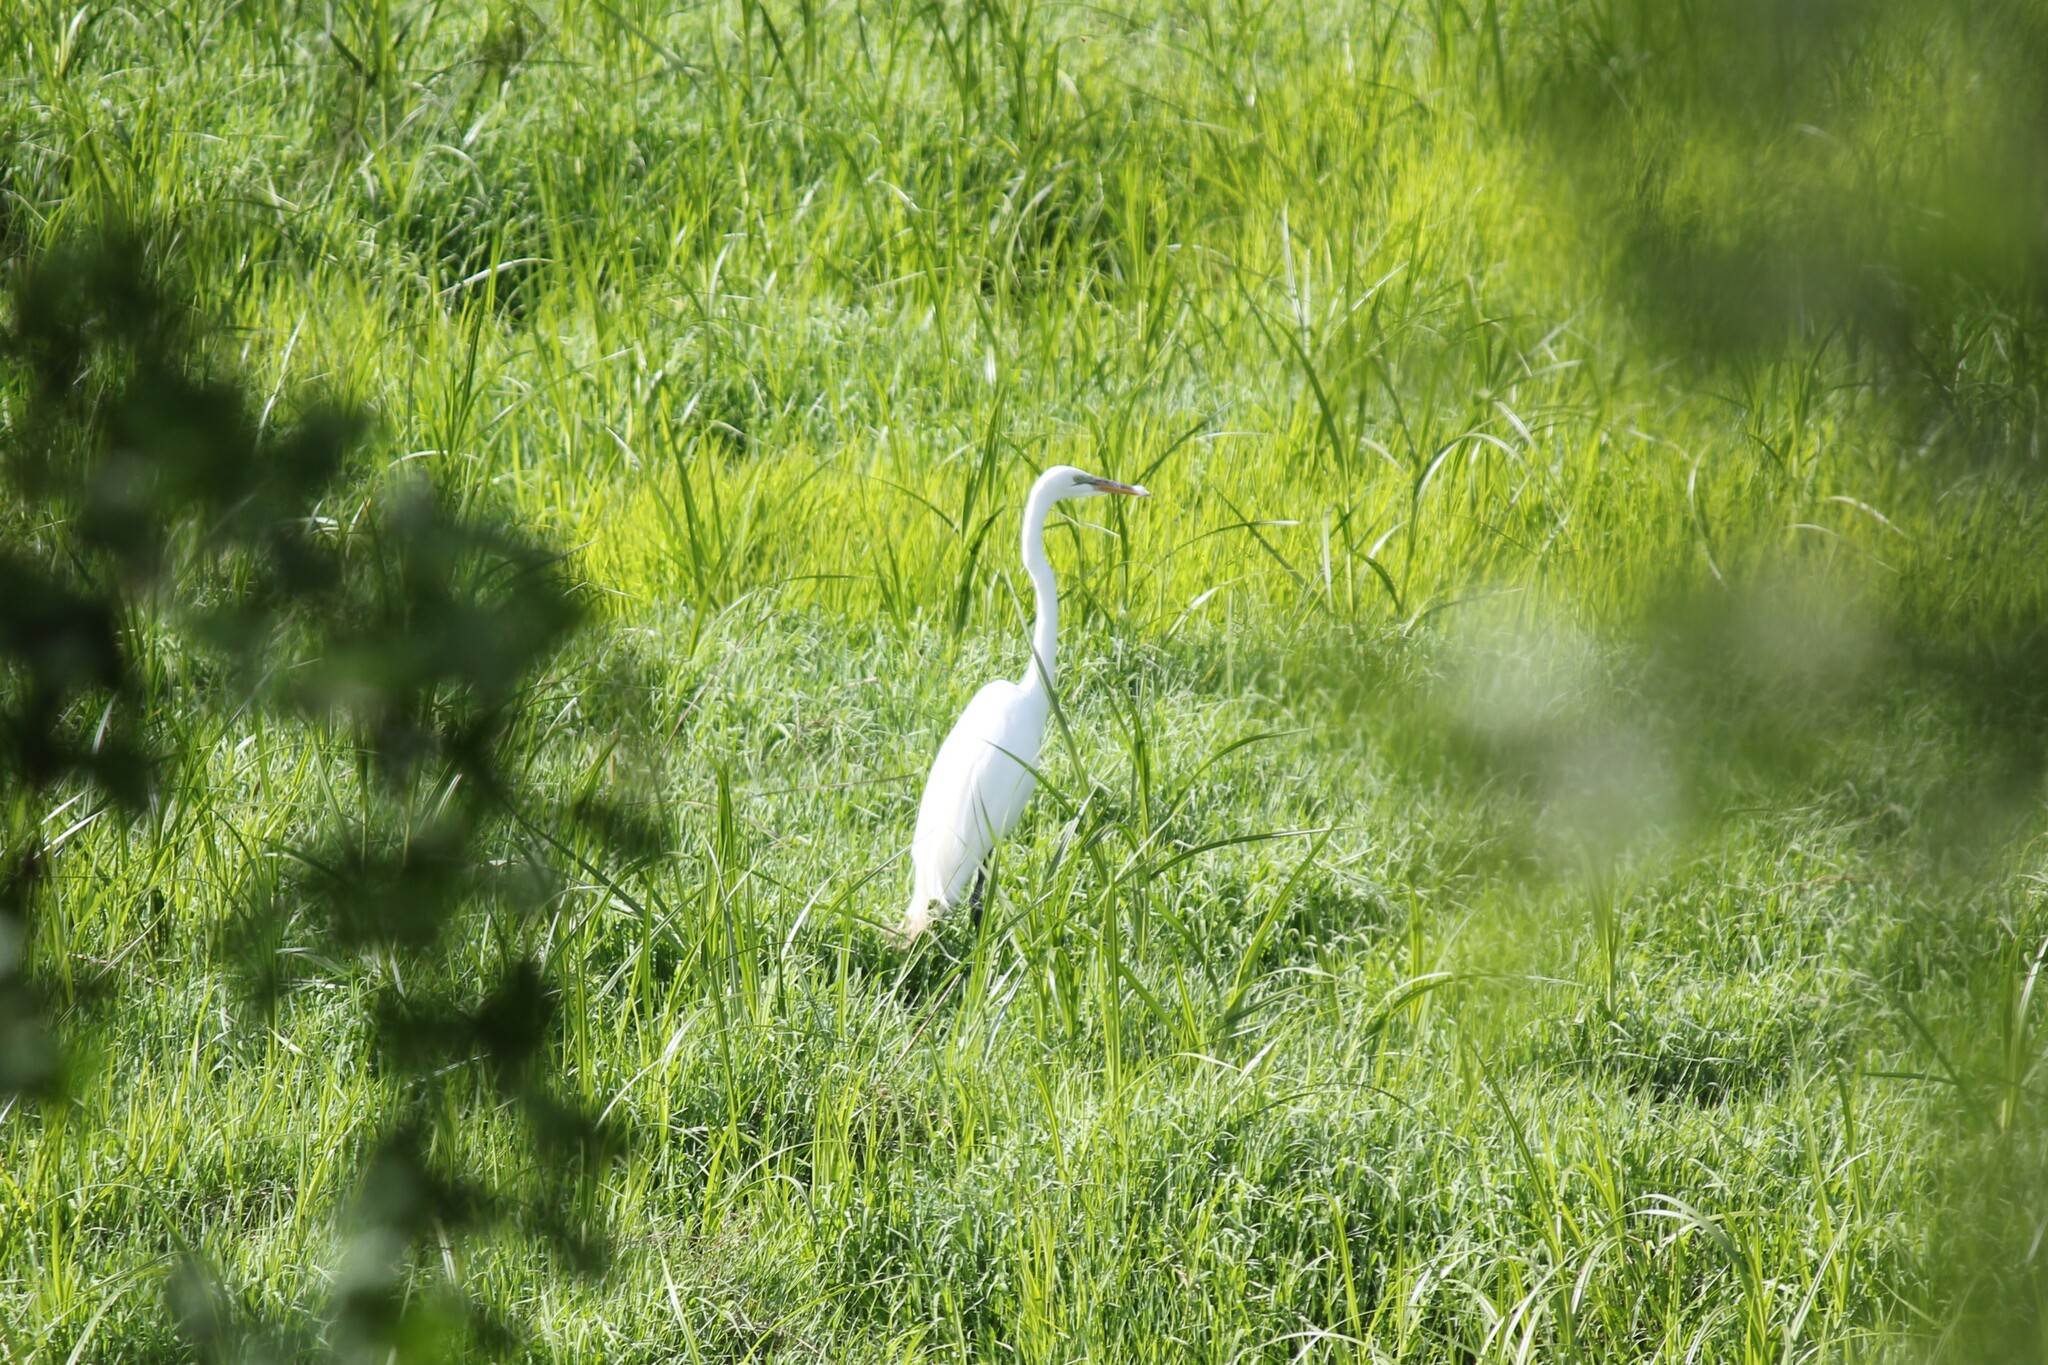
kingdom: Animalia
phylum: Chordata
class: Aves
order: Pelecaniformes
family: Ardeidae
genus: Ardea
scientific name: Ardea alba
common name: Great egret
